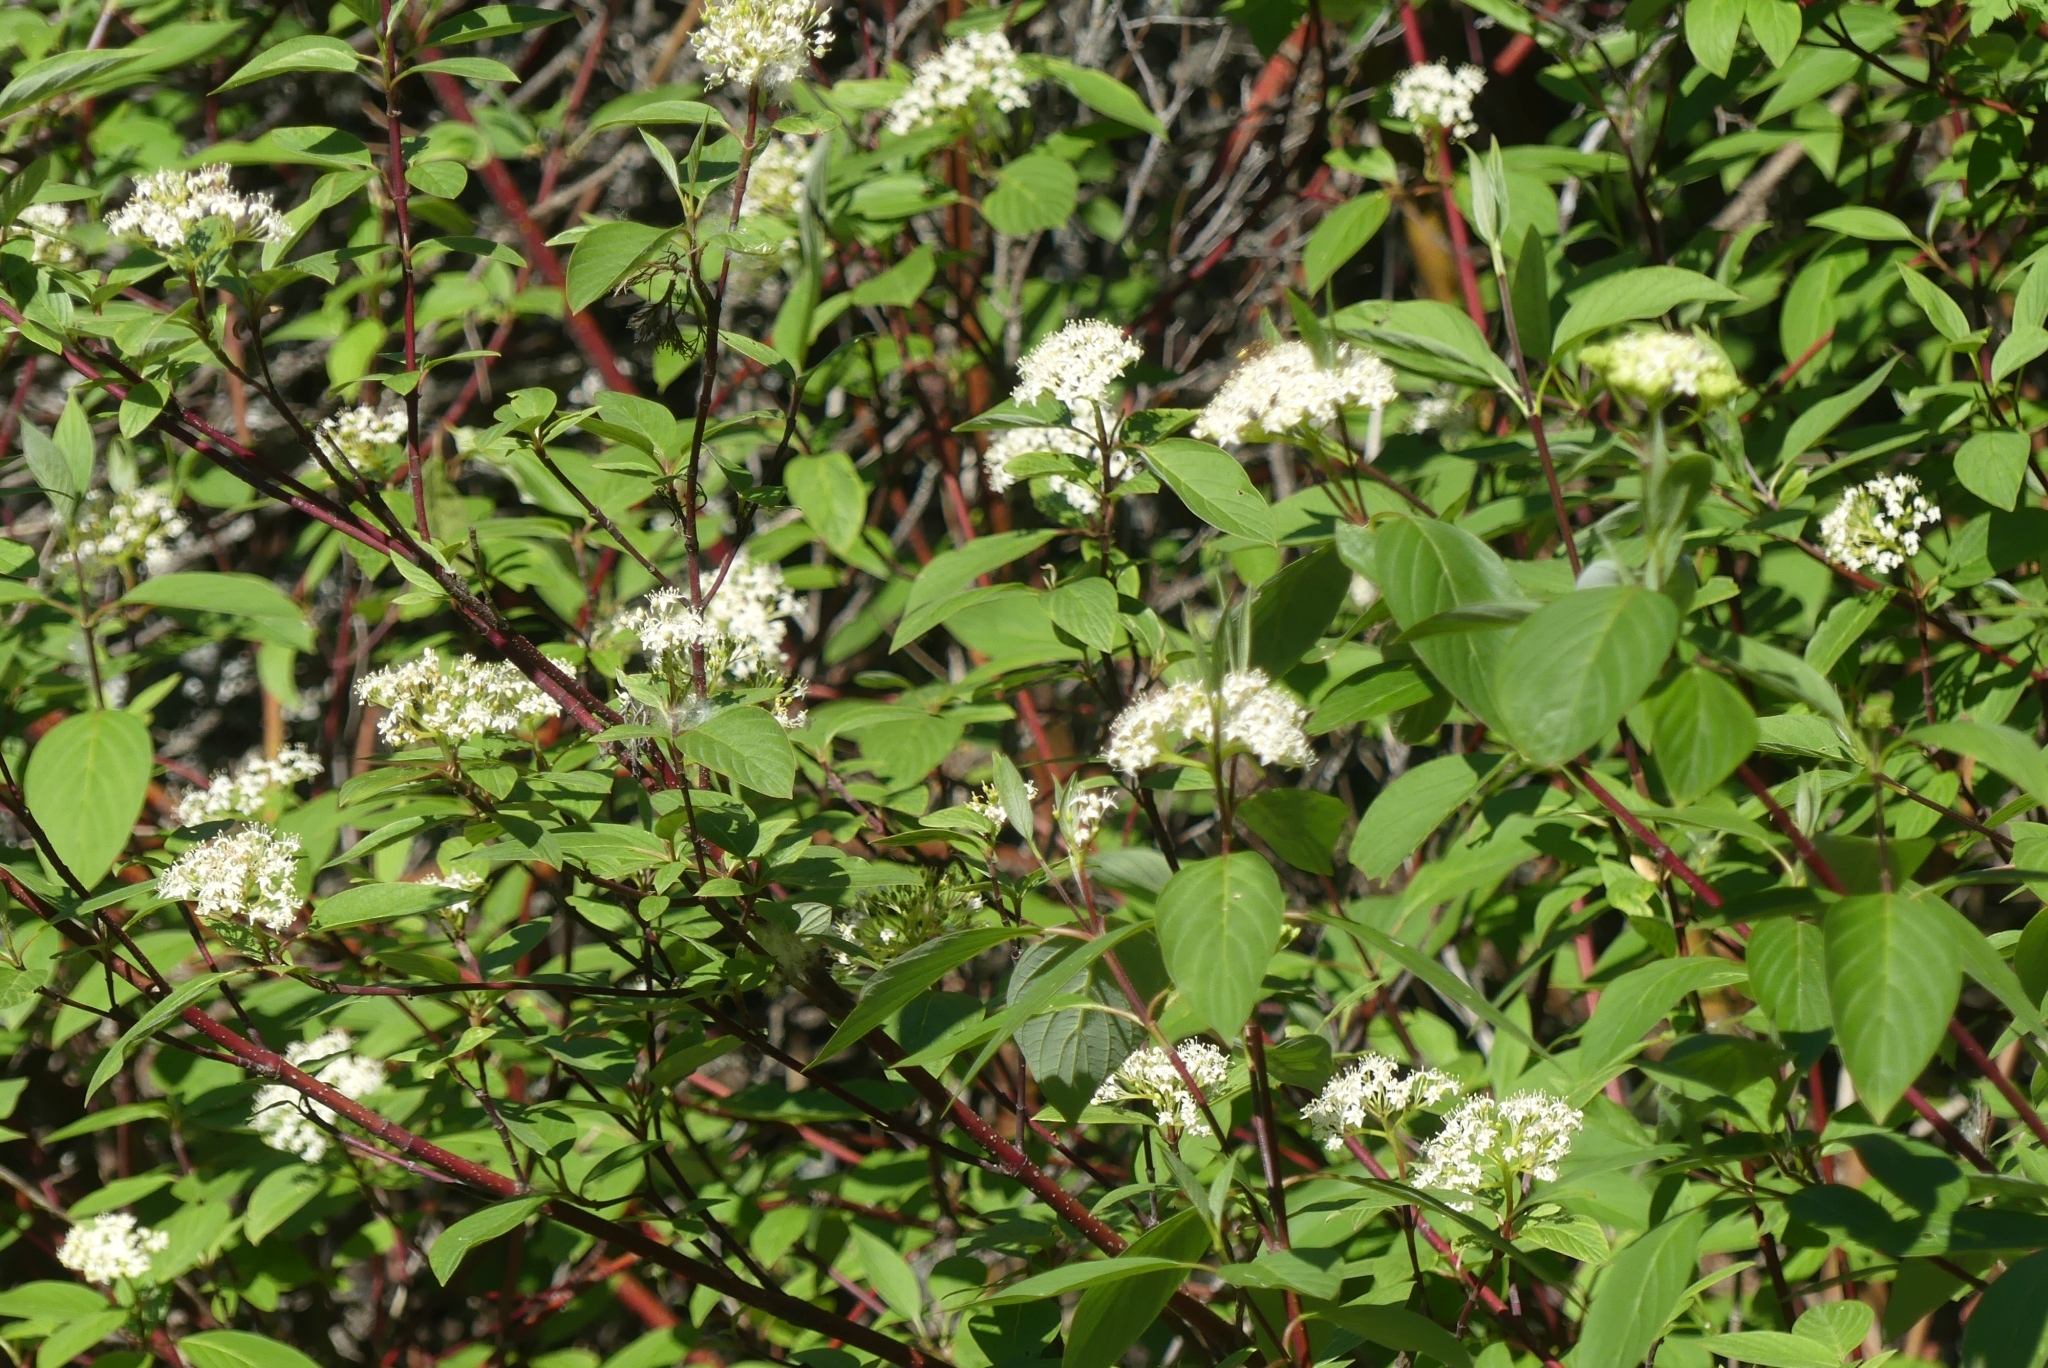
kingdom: Plantae
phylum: Tracheophyta
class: Magnoliopsida
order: Cornales
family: Cornaceae
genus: Cornus
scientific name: Cornus sericea
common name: Red-osier dogwood
